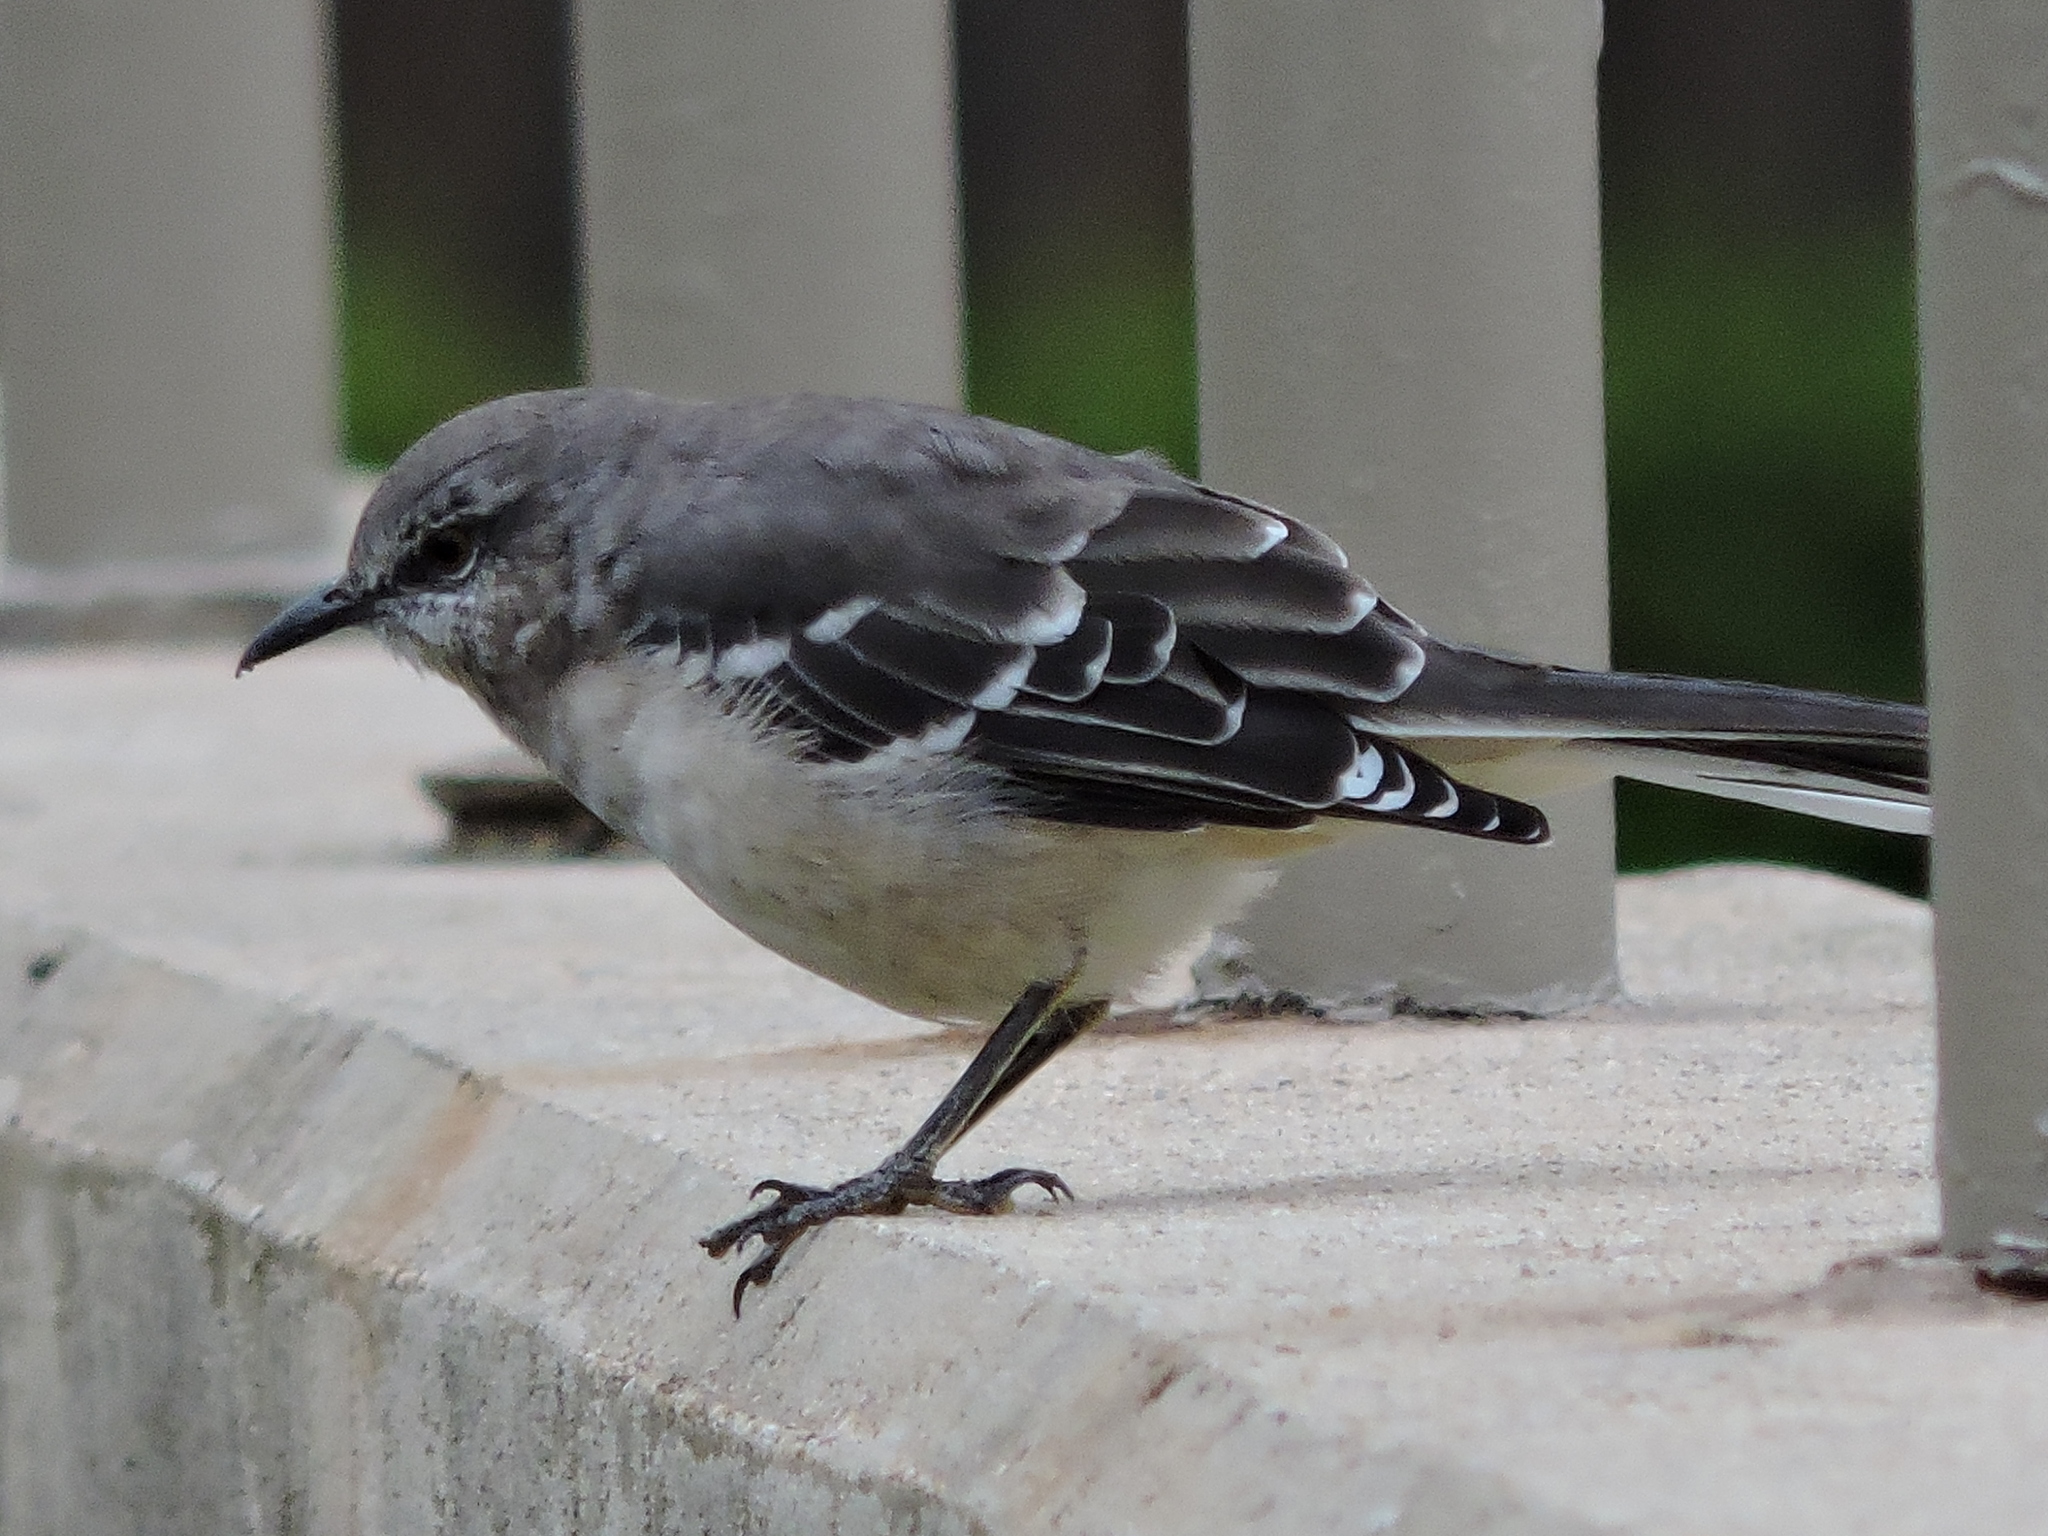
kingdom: Animalia
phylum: Chordata
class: Aves
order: Passeriformes
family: Mimidae
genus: Mimus
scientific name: Mimus polyglottos
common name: Northern mockingbird
